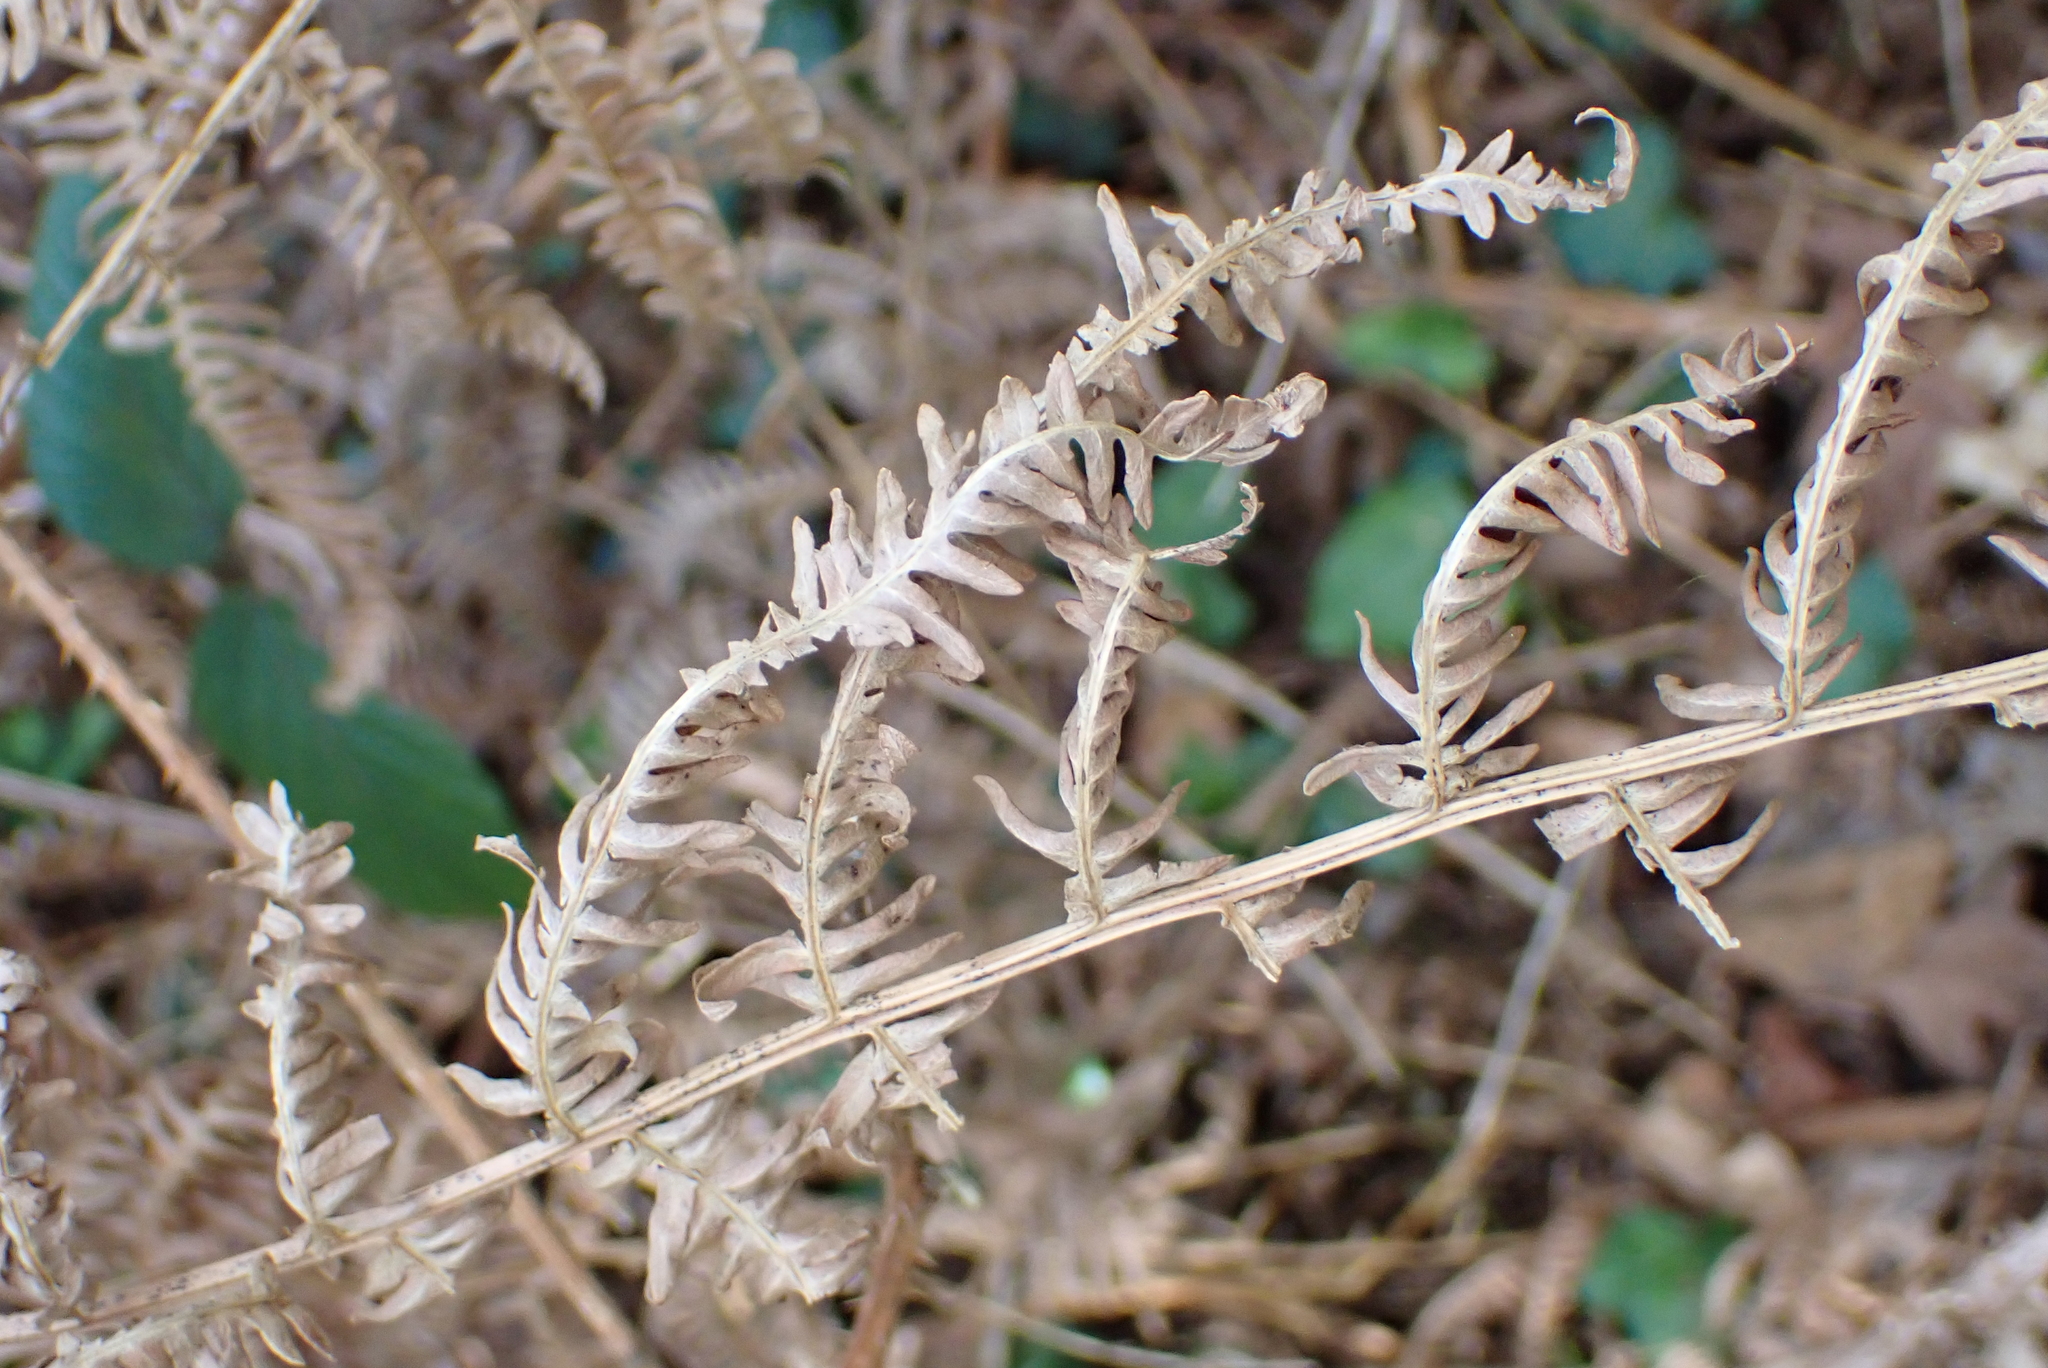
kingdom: Plantae
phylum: Tracheophyta
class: Polypodiopsida
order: Polypodiales
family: Dennstaedtiaceae
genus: Pteridium
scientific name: Pteridium aquilinum
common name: Bracken
